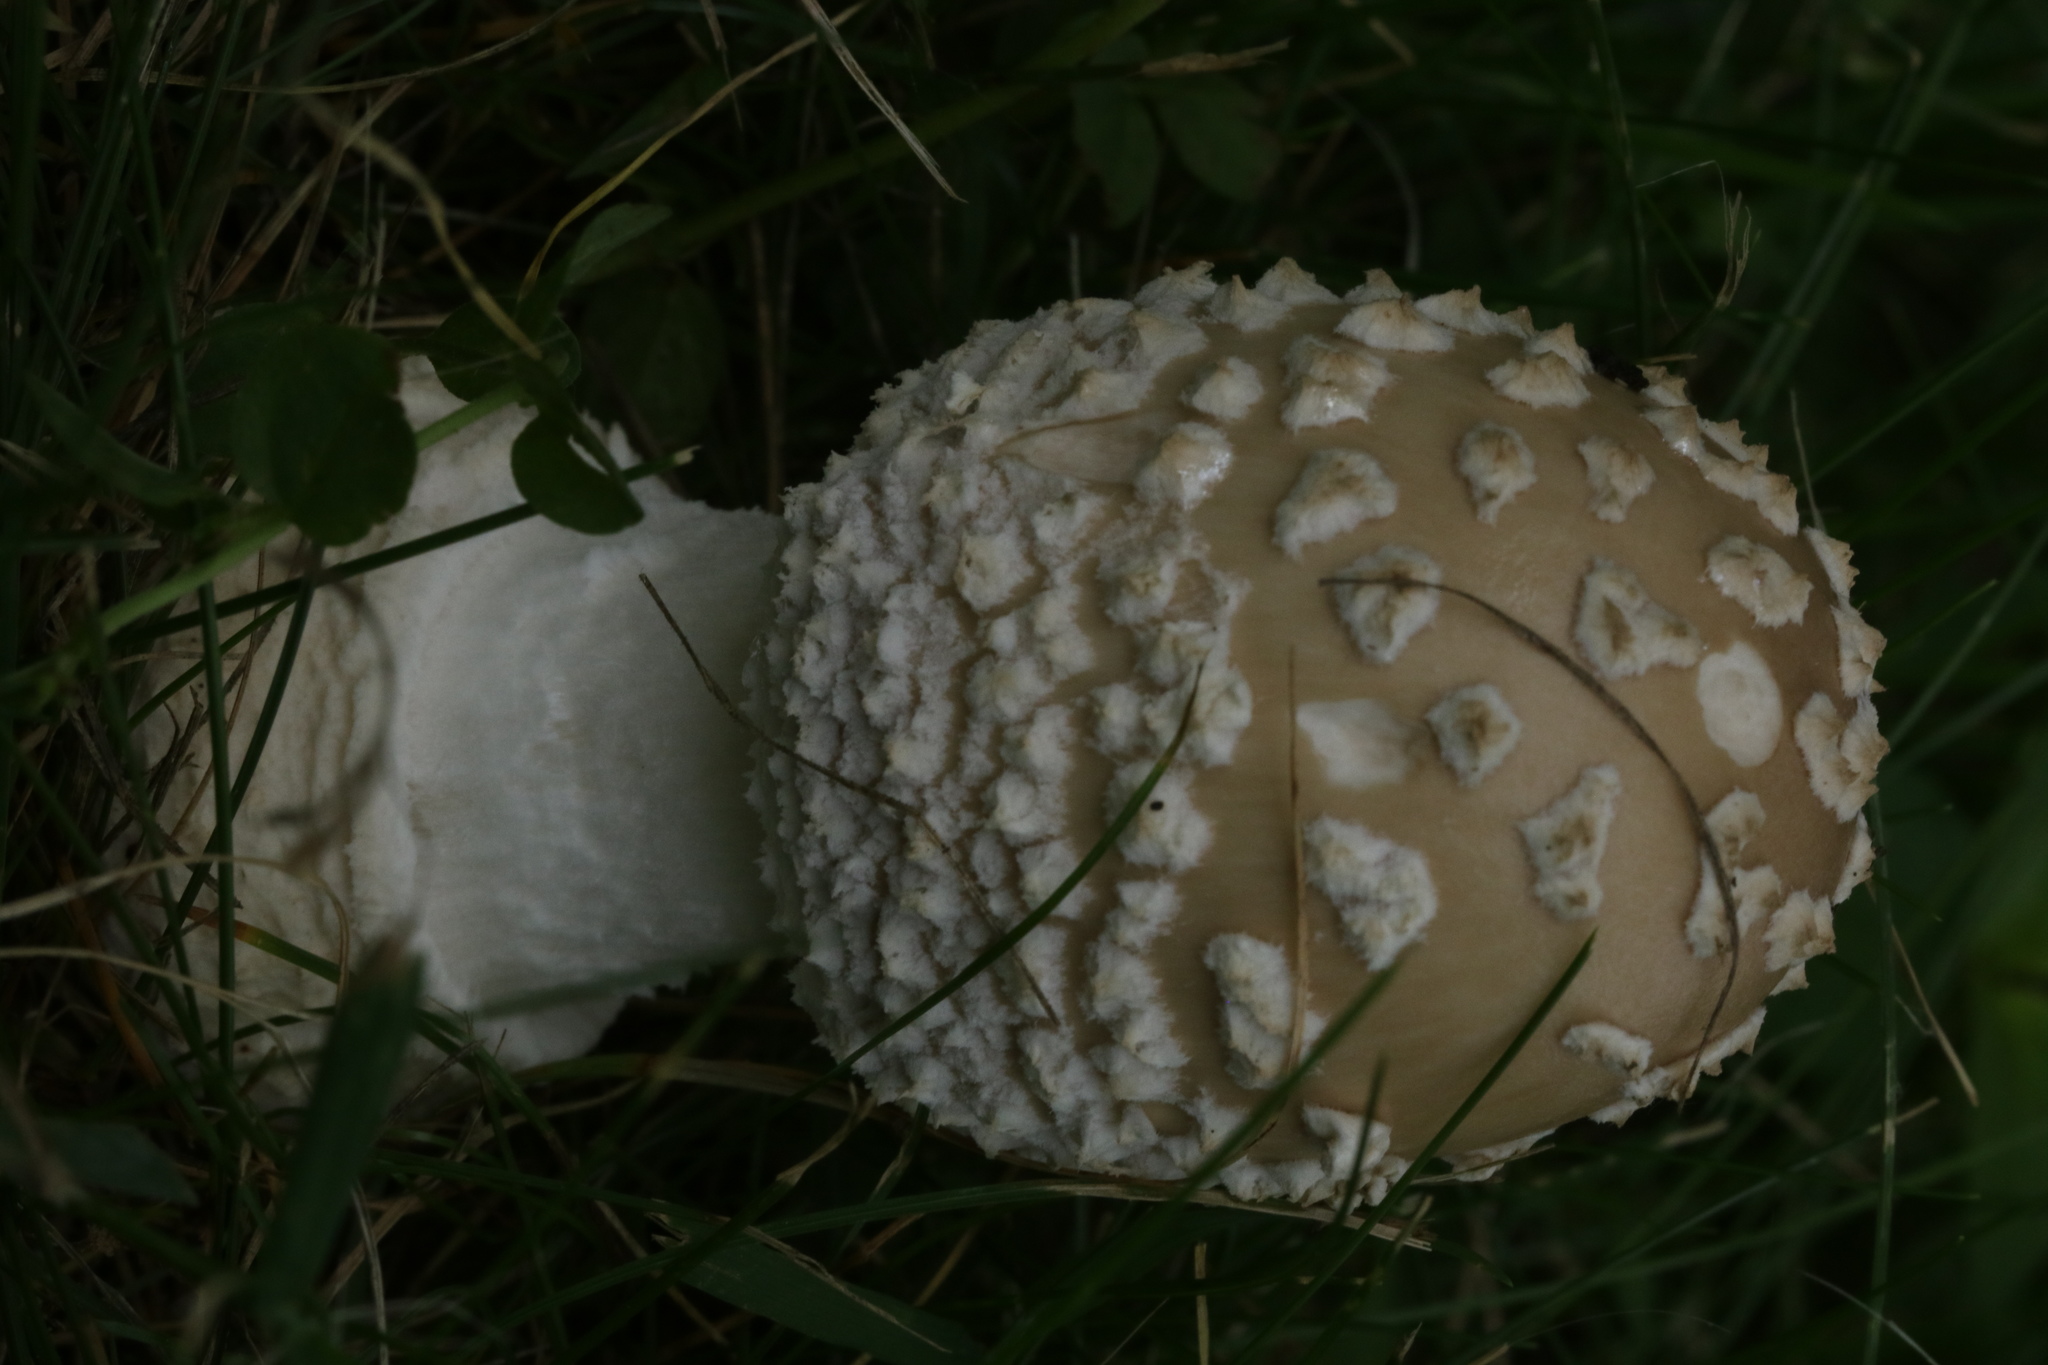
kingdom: Fungi
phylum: Basidiomycota
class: Agaricomycetes
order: Agaricales
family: Amanitaceae
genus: Amanita
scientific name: Amanita velatipes
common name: Great funnel-veil amanita
